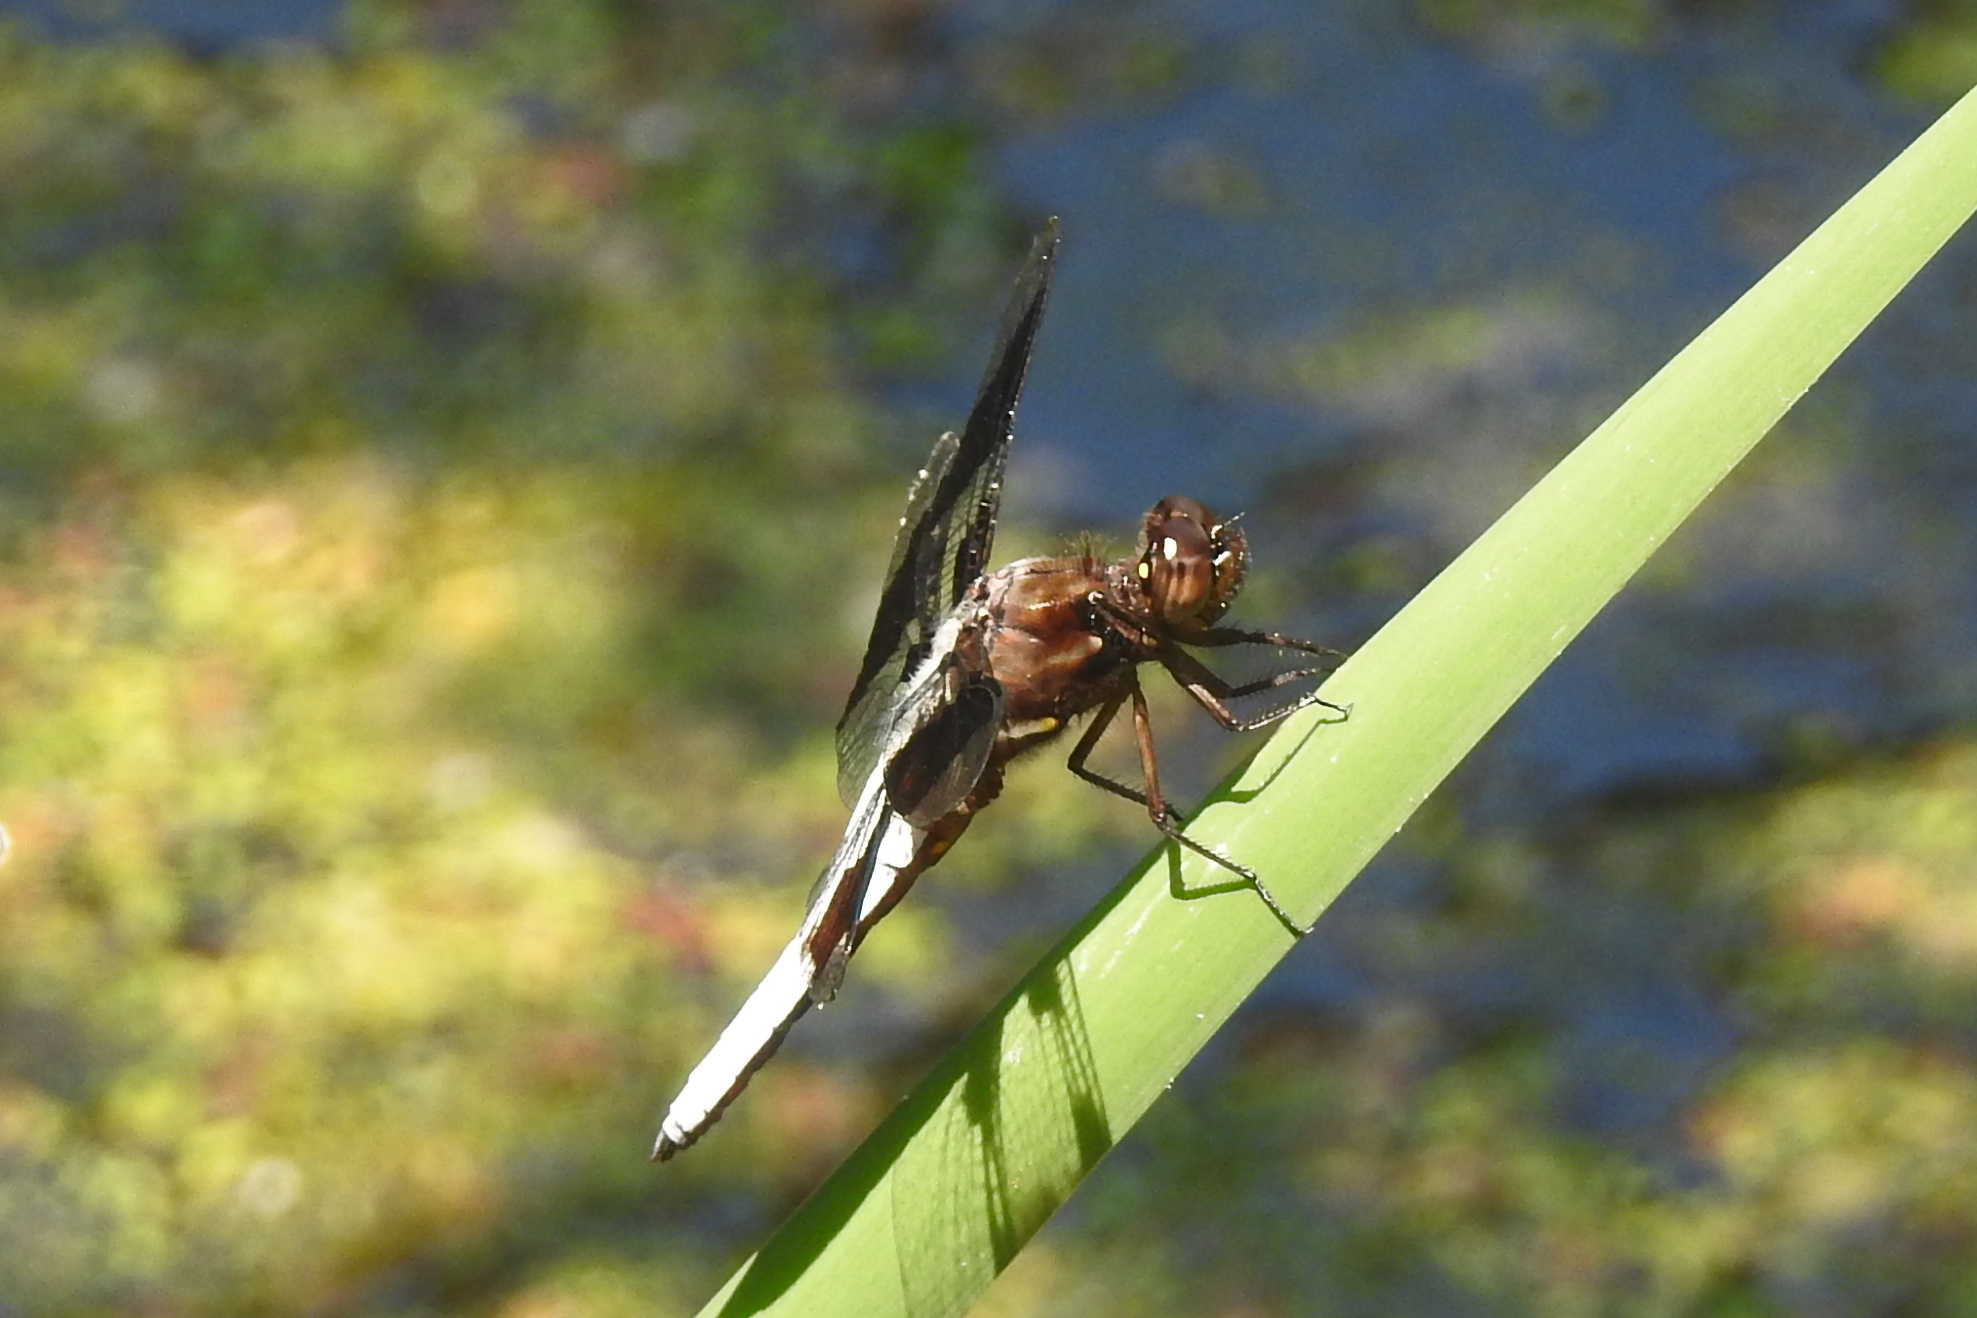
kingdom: Animalia
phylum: Arthropoda
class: Insecta
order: Odonata
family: Libellulidae
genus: Plathemis
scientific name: Plathemis lydia
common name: Common whitetail
